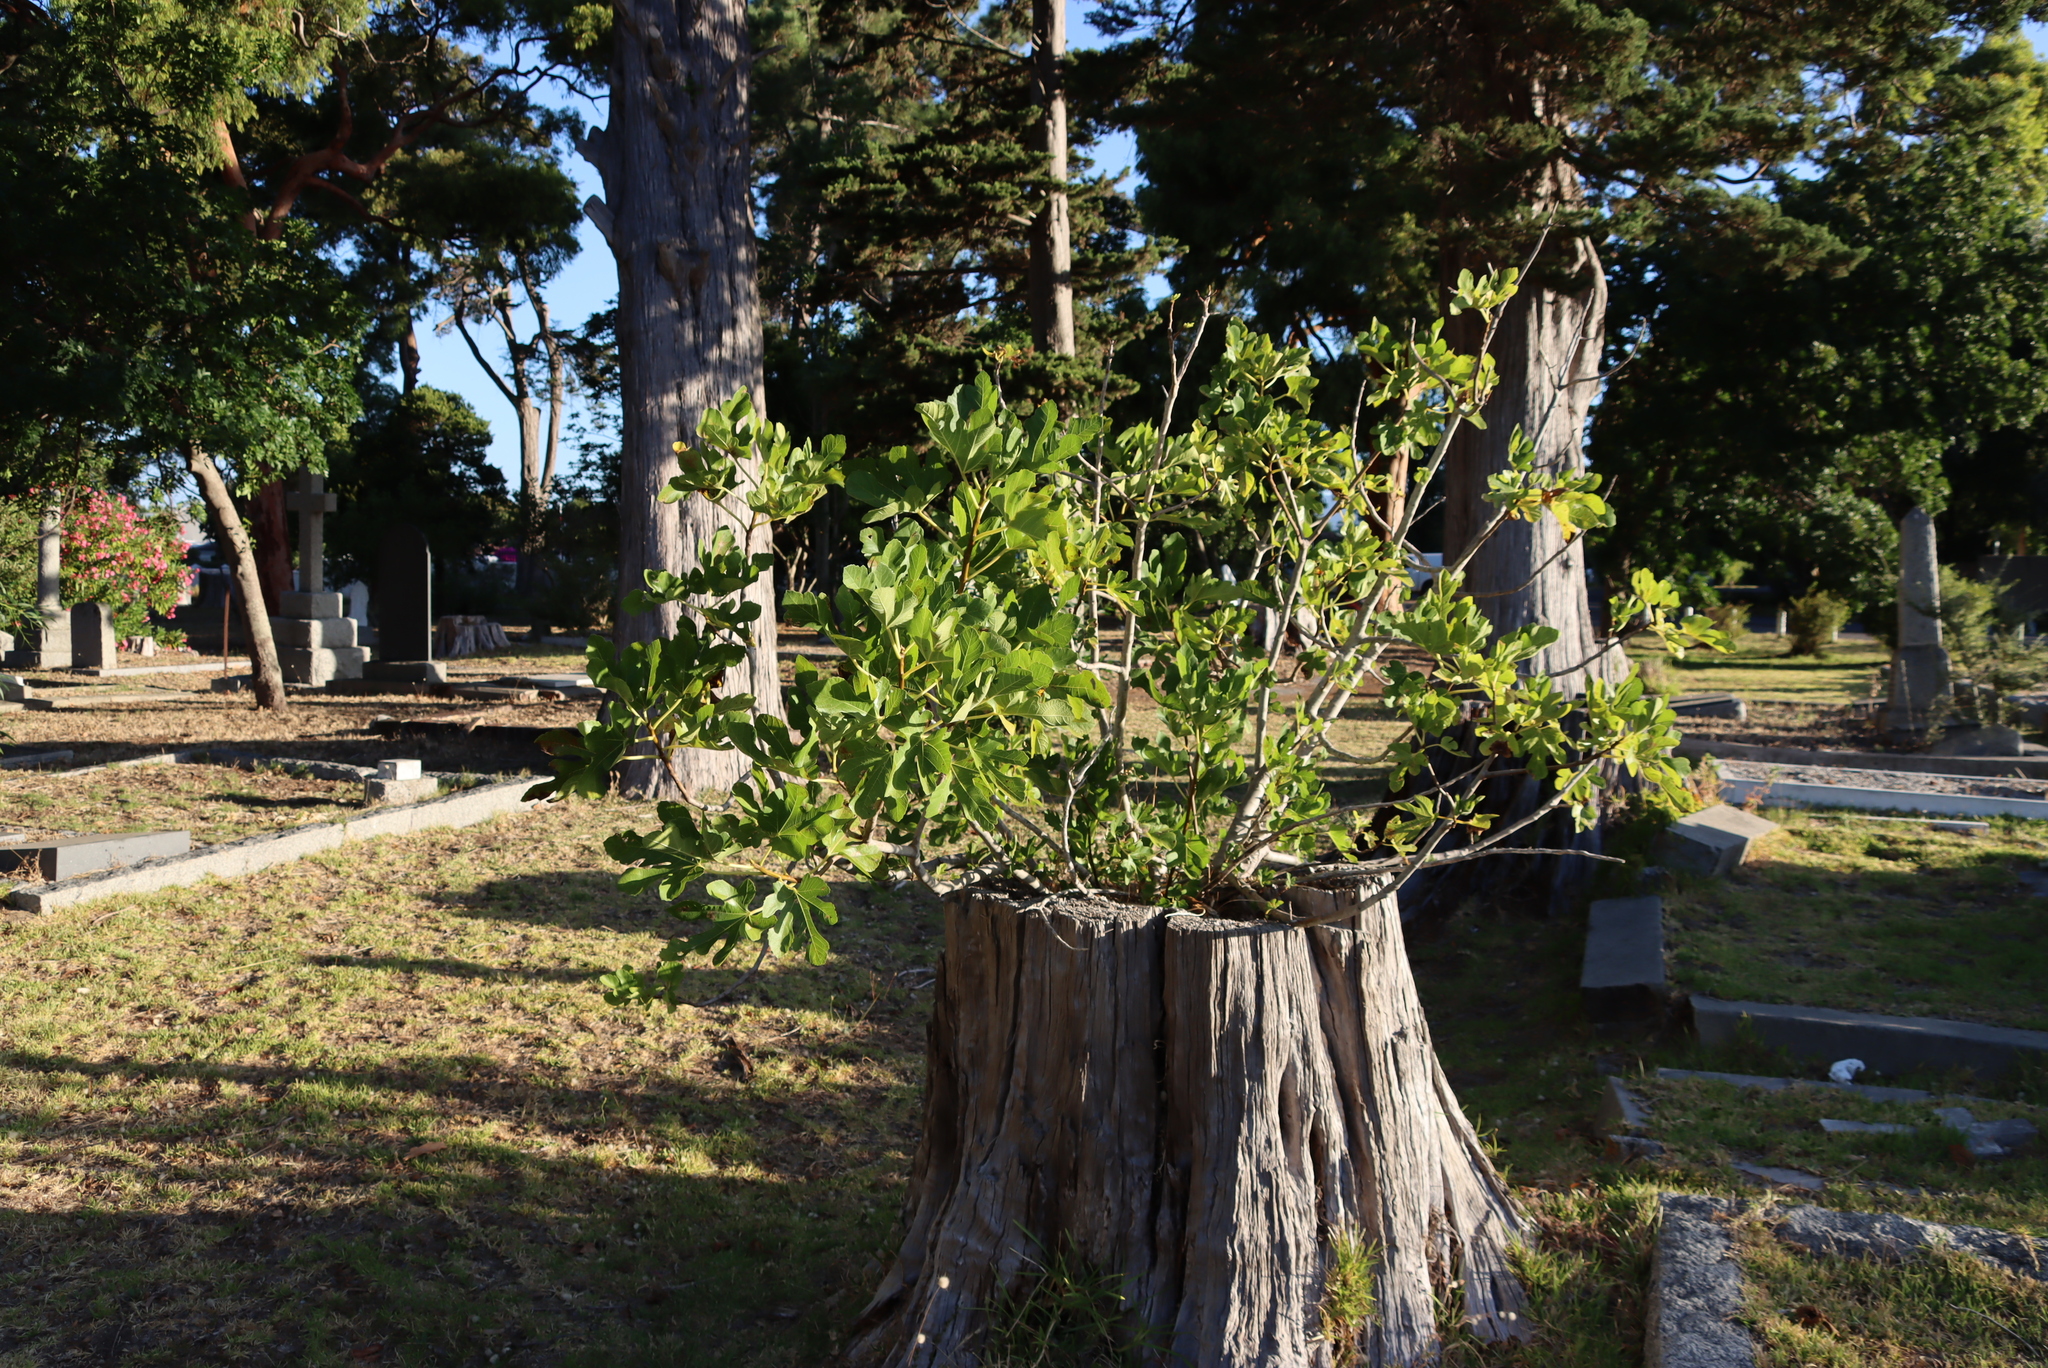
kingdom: Plantae
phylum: Tracheophyta
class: Magnoliopsida
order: Rosales
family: Moraceae
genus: Ficus
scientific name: Ficus carica
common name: Fig
